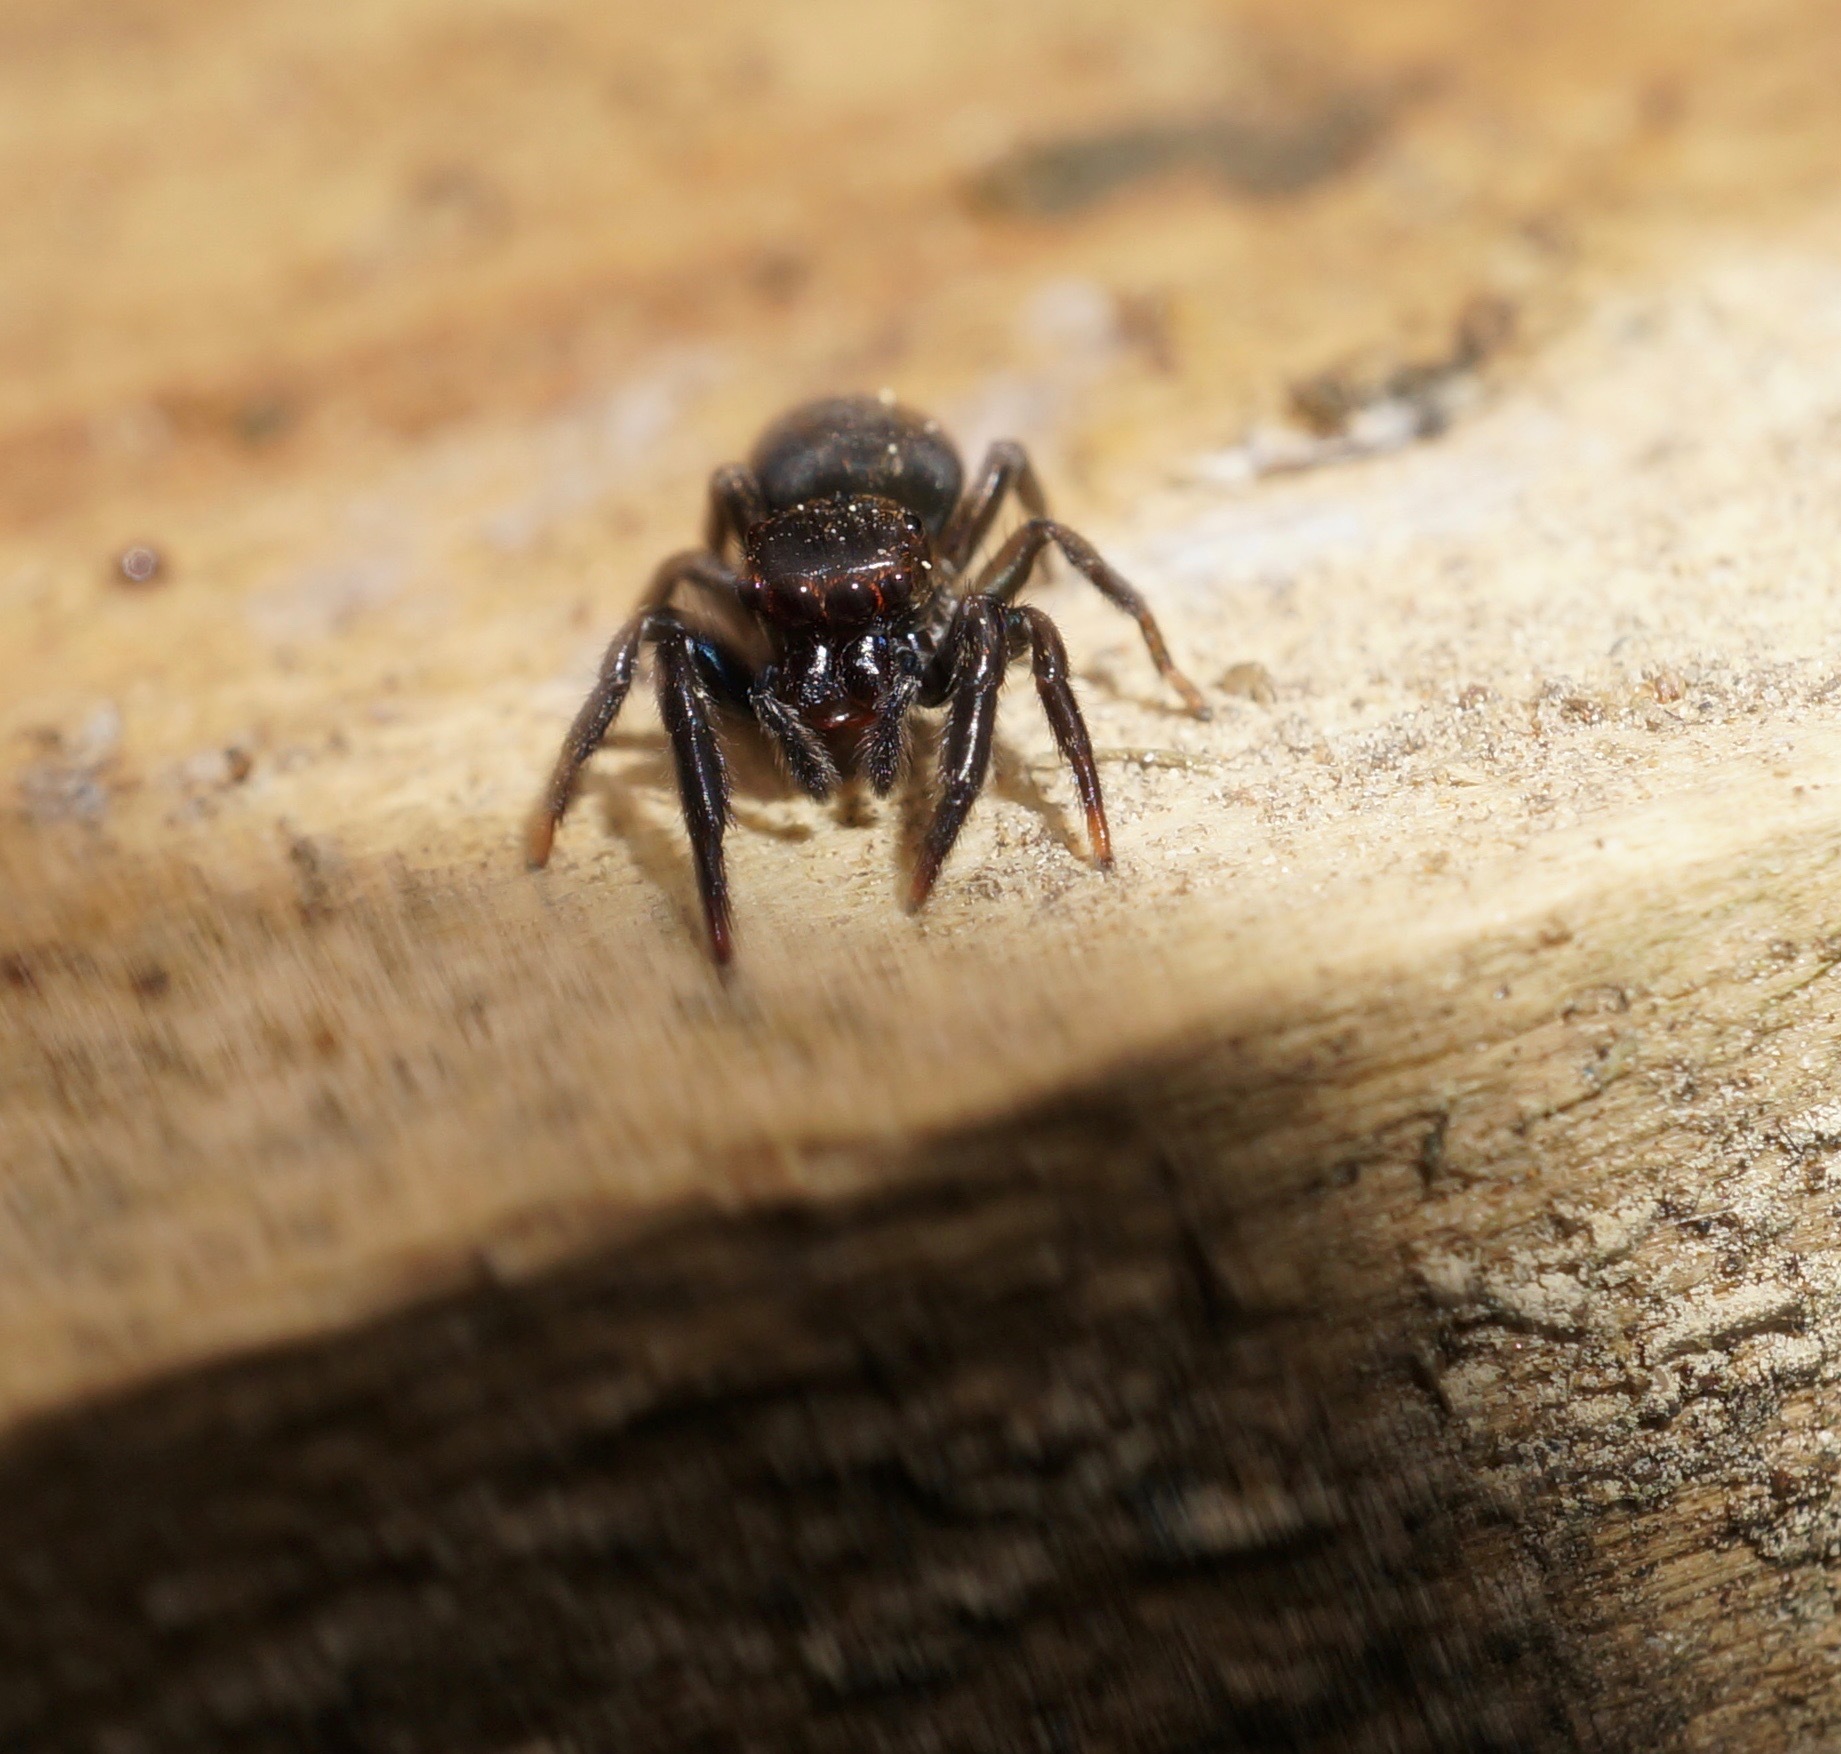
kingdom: Animalia
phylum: Arthropoda
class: Arachnida
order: Araneae
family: Salticidae
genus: Trite
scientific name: Trite auricoma
